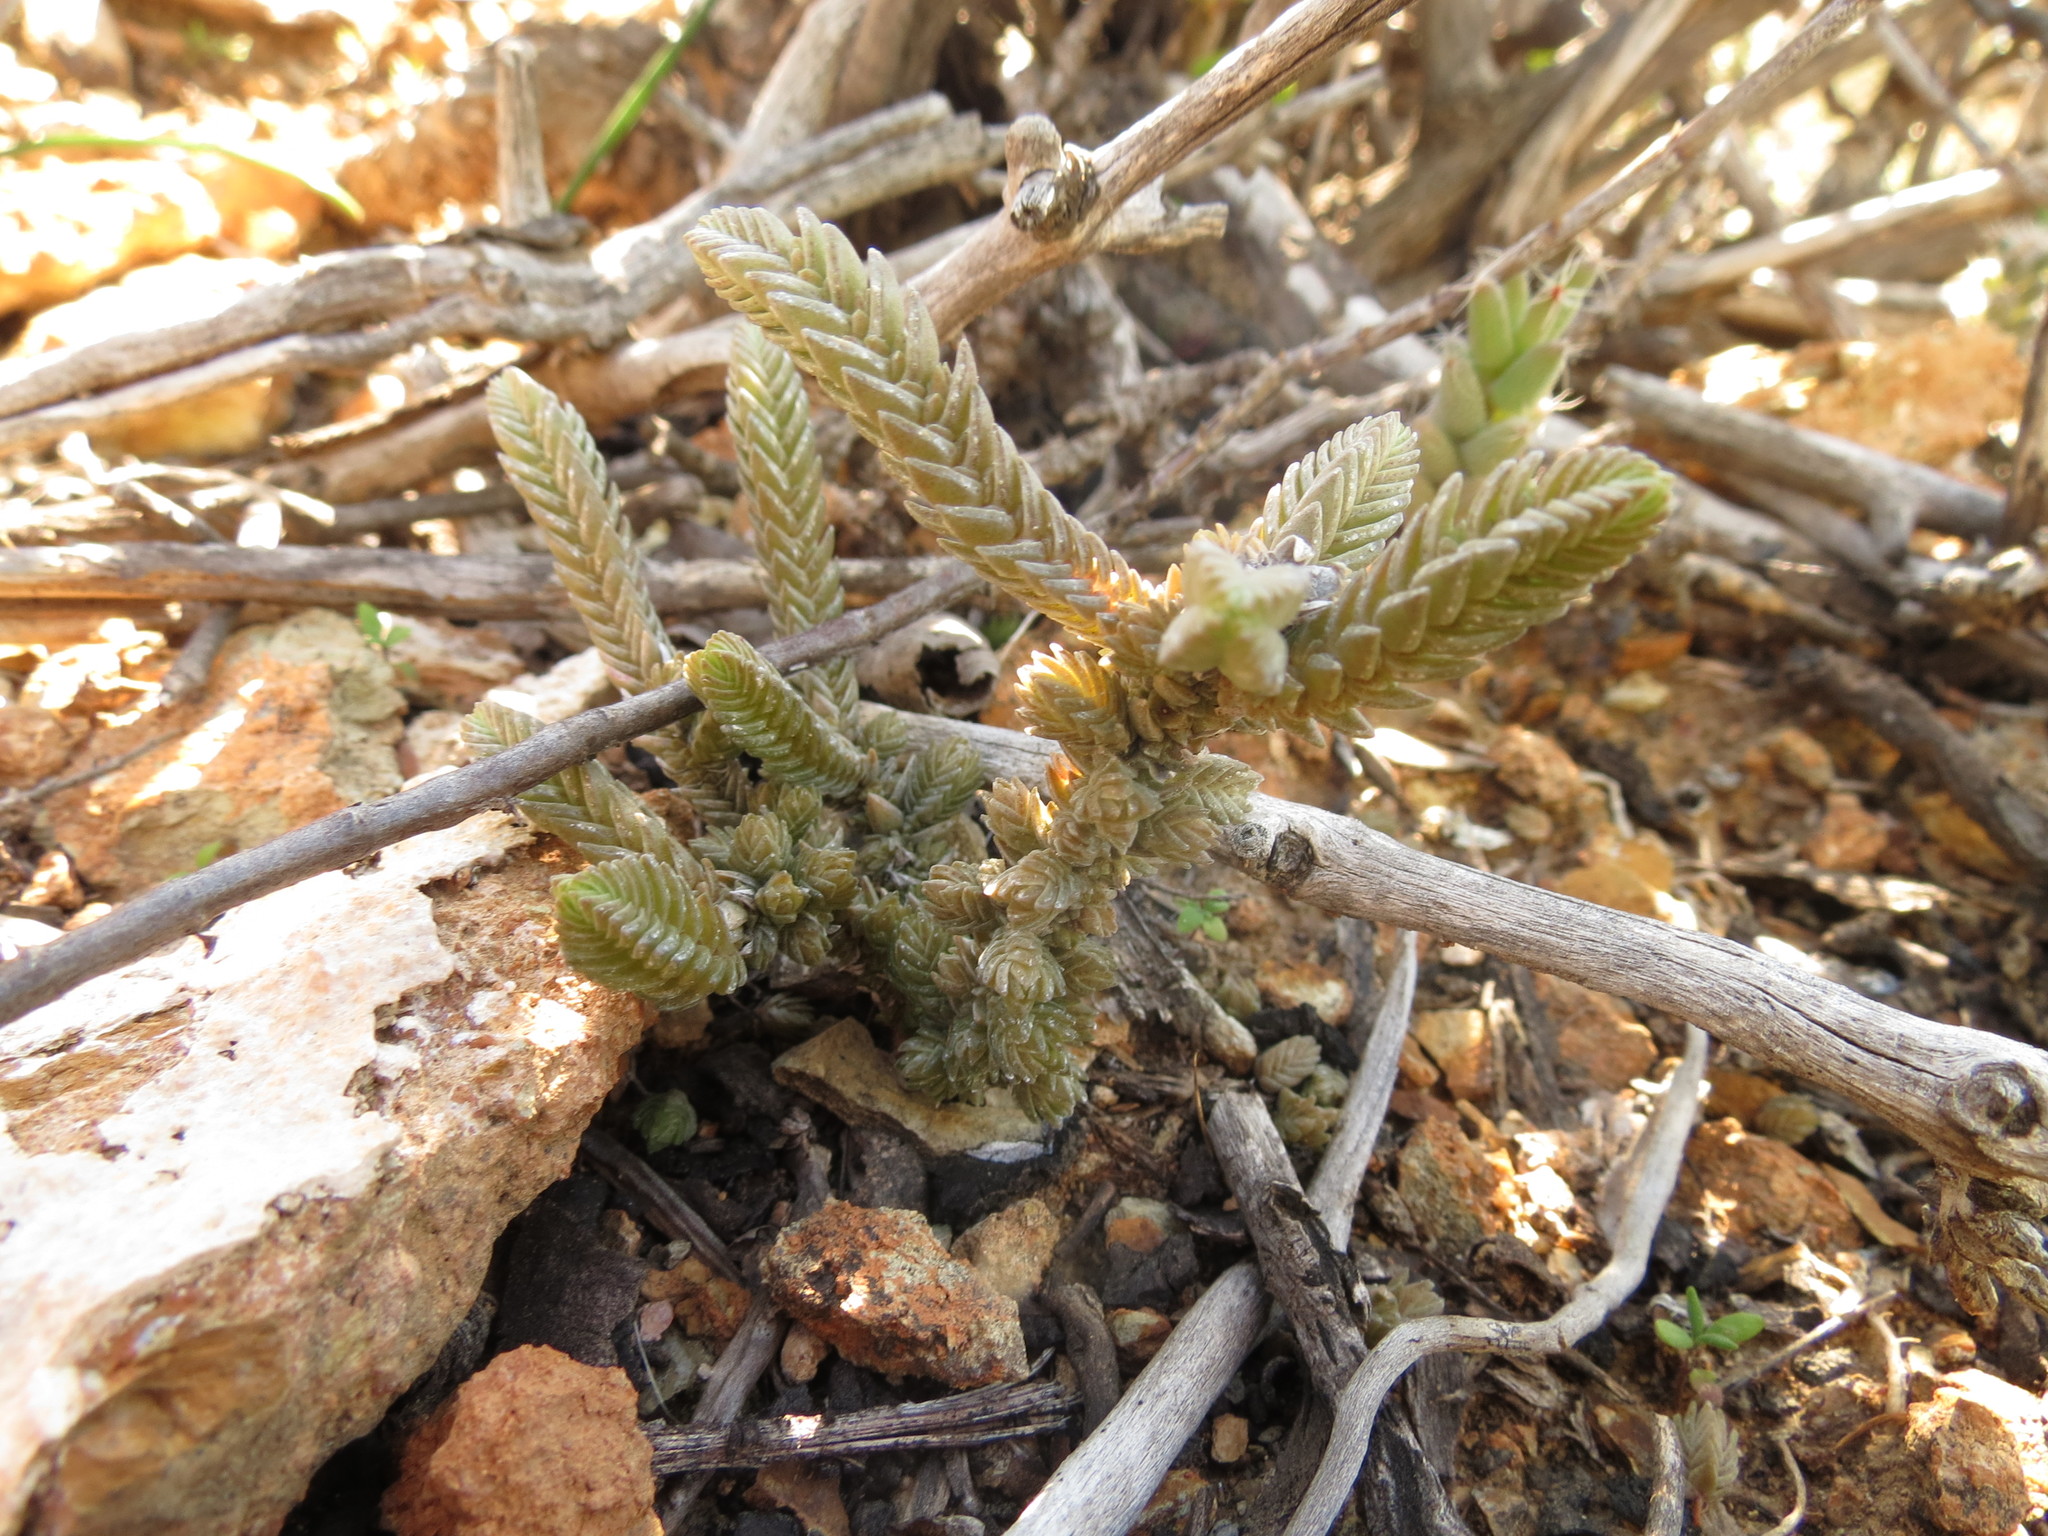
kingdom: Plantae
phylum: Tracheophyta
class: Magnoliopsida
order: Saxifragales
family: Crassulaceae
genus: Crassula
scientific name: Crassula muscosa
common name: Toy-cypress
